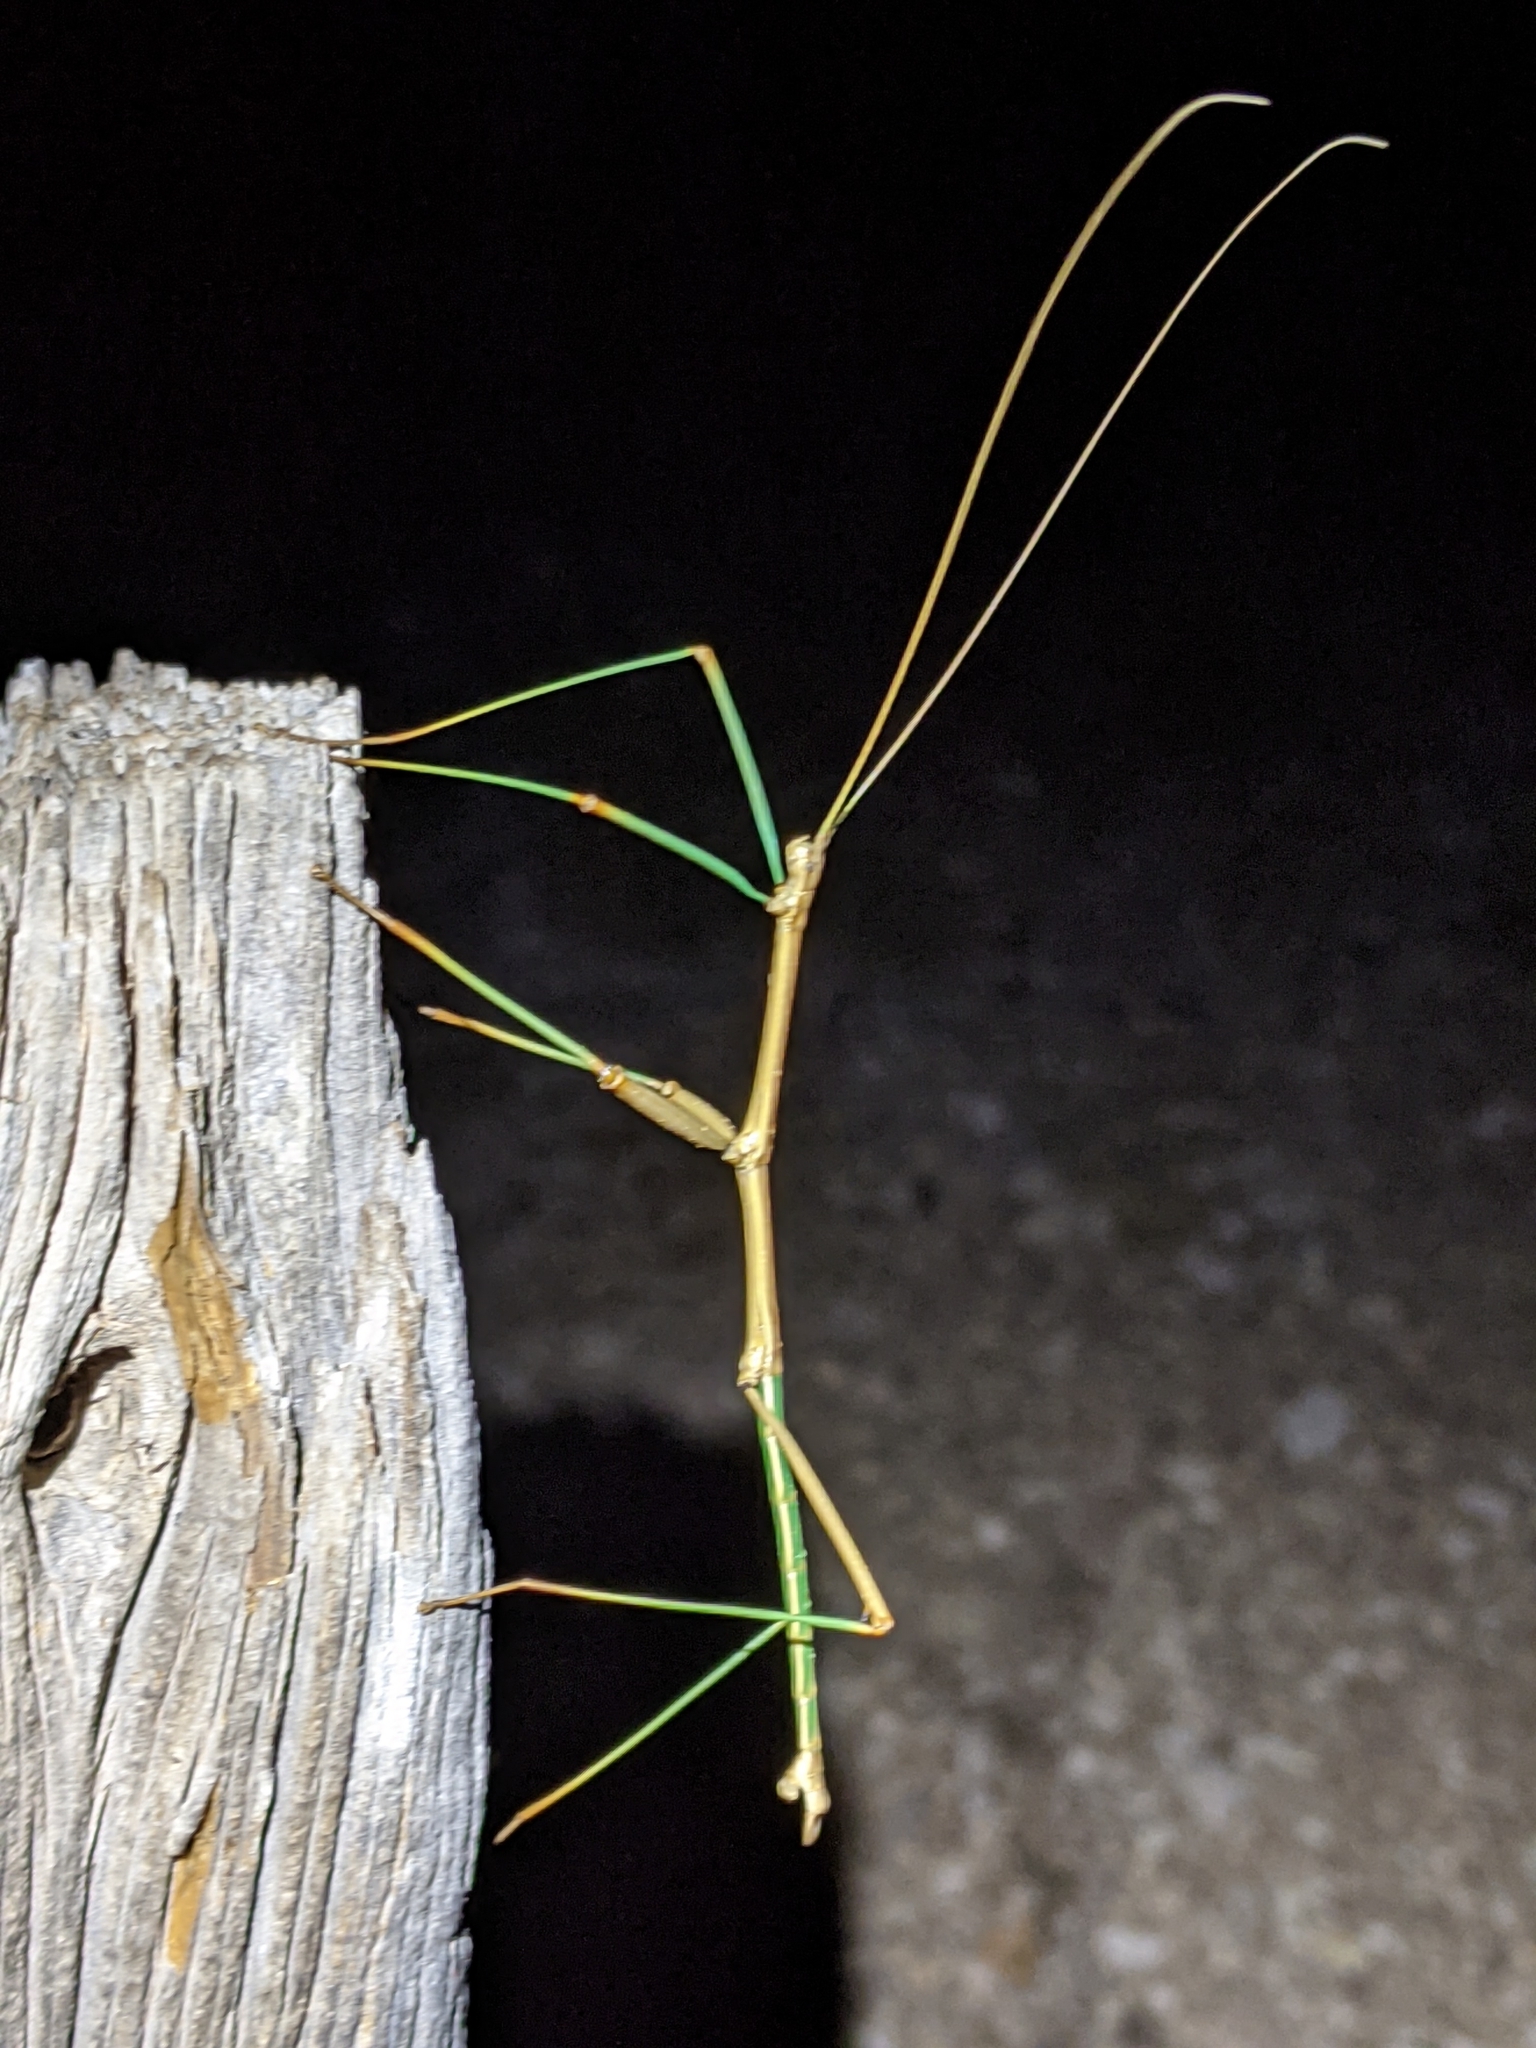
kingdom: Animalia
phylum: Arthropoda
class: Insecta
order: Phasmida
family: Diapheromeridae
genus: Diapheromera
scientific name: Diapheromera velii
